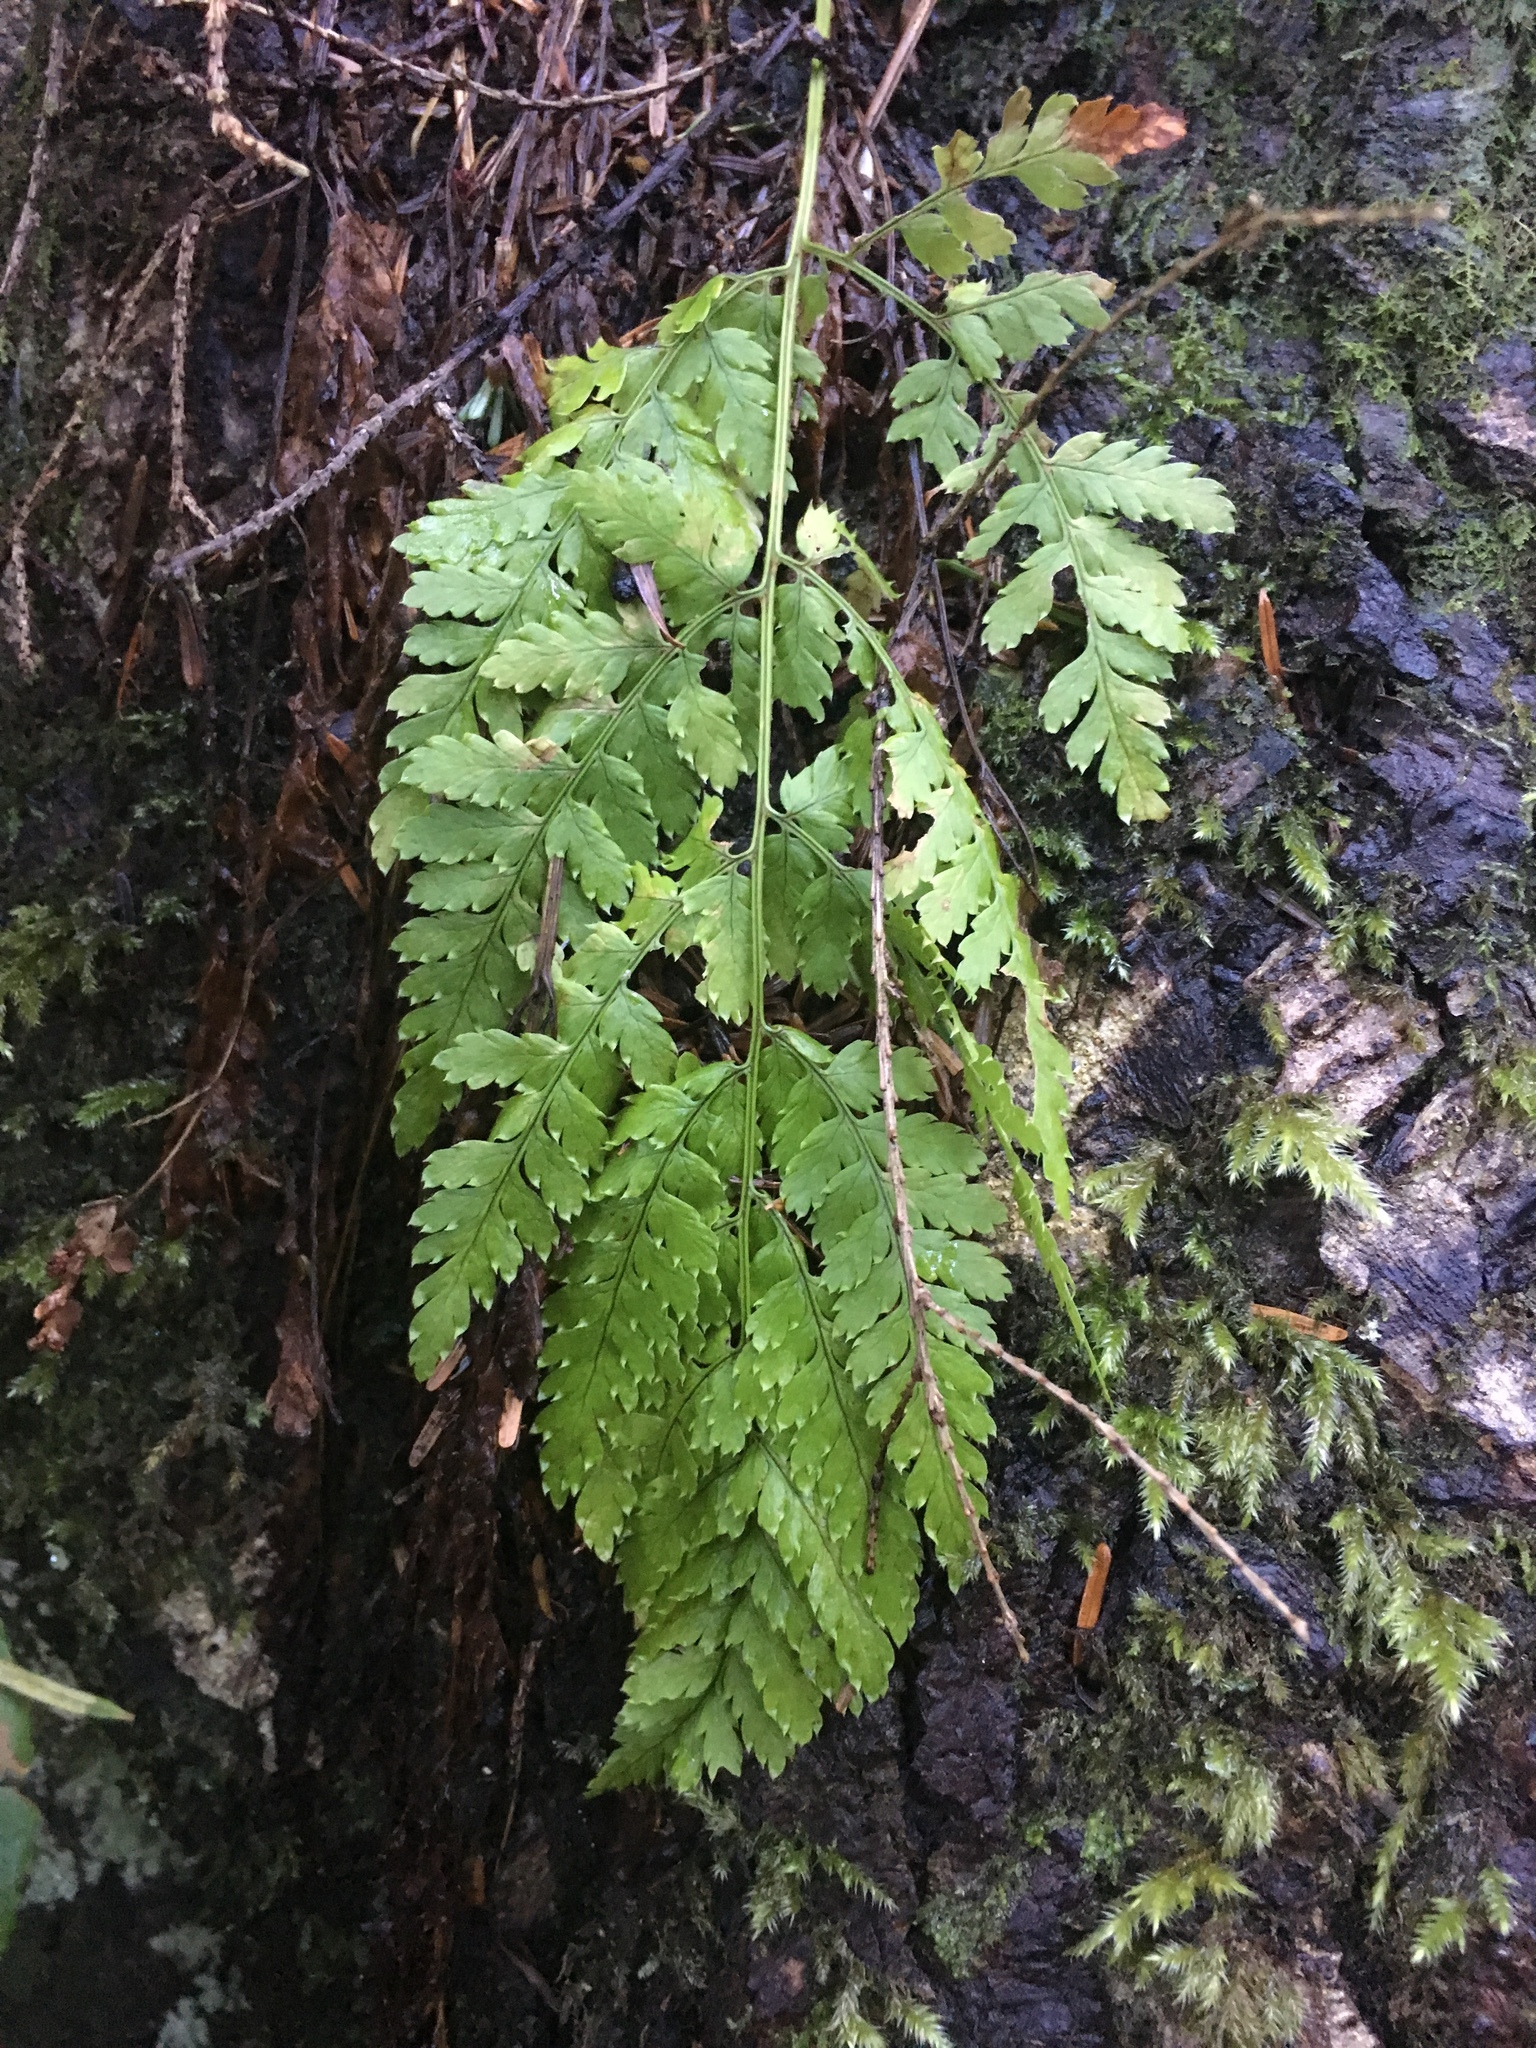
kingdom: Plantae
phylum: Tracheophyta
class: Polypodiopsida
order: Polypodiales
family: Dryopteridaceae
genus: Dryopteris
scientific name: Dryopteris expansa
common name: Northern buckler fern
